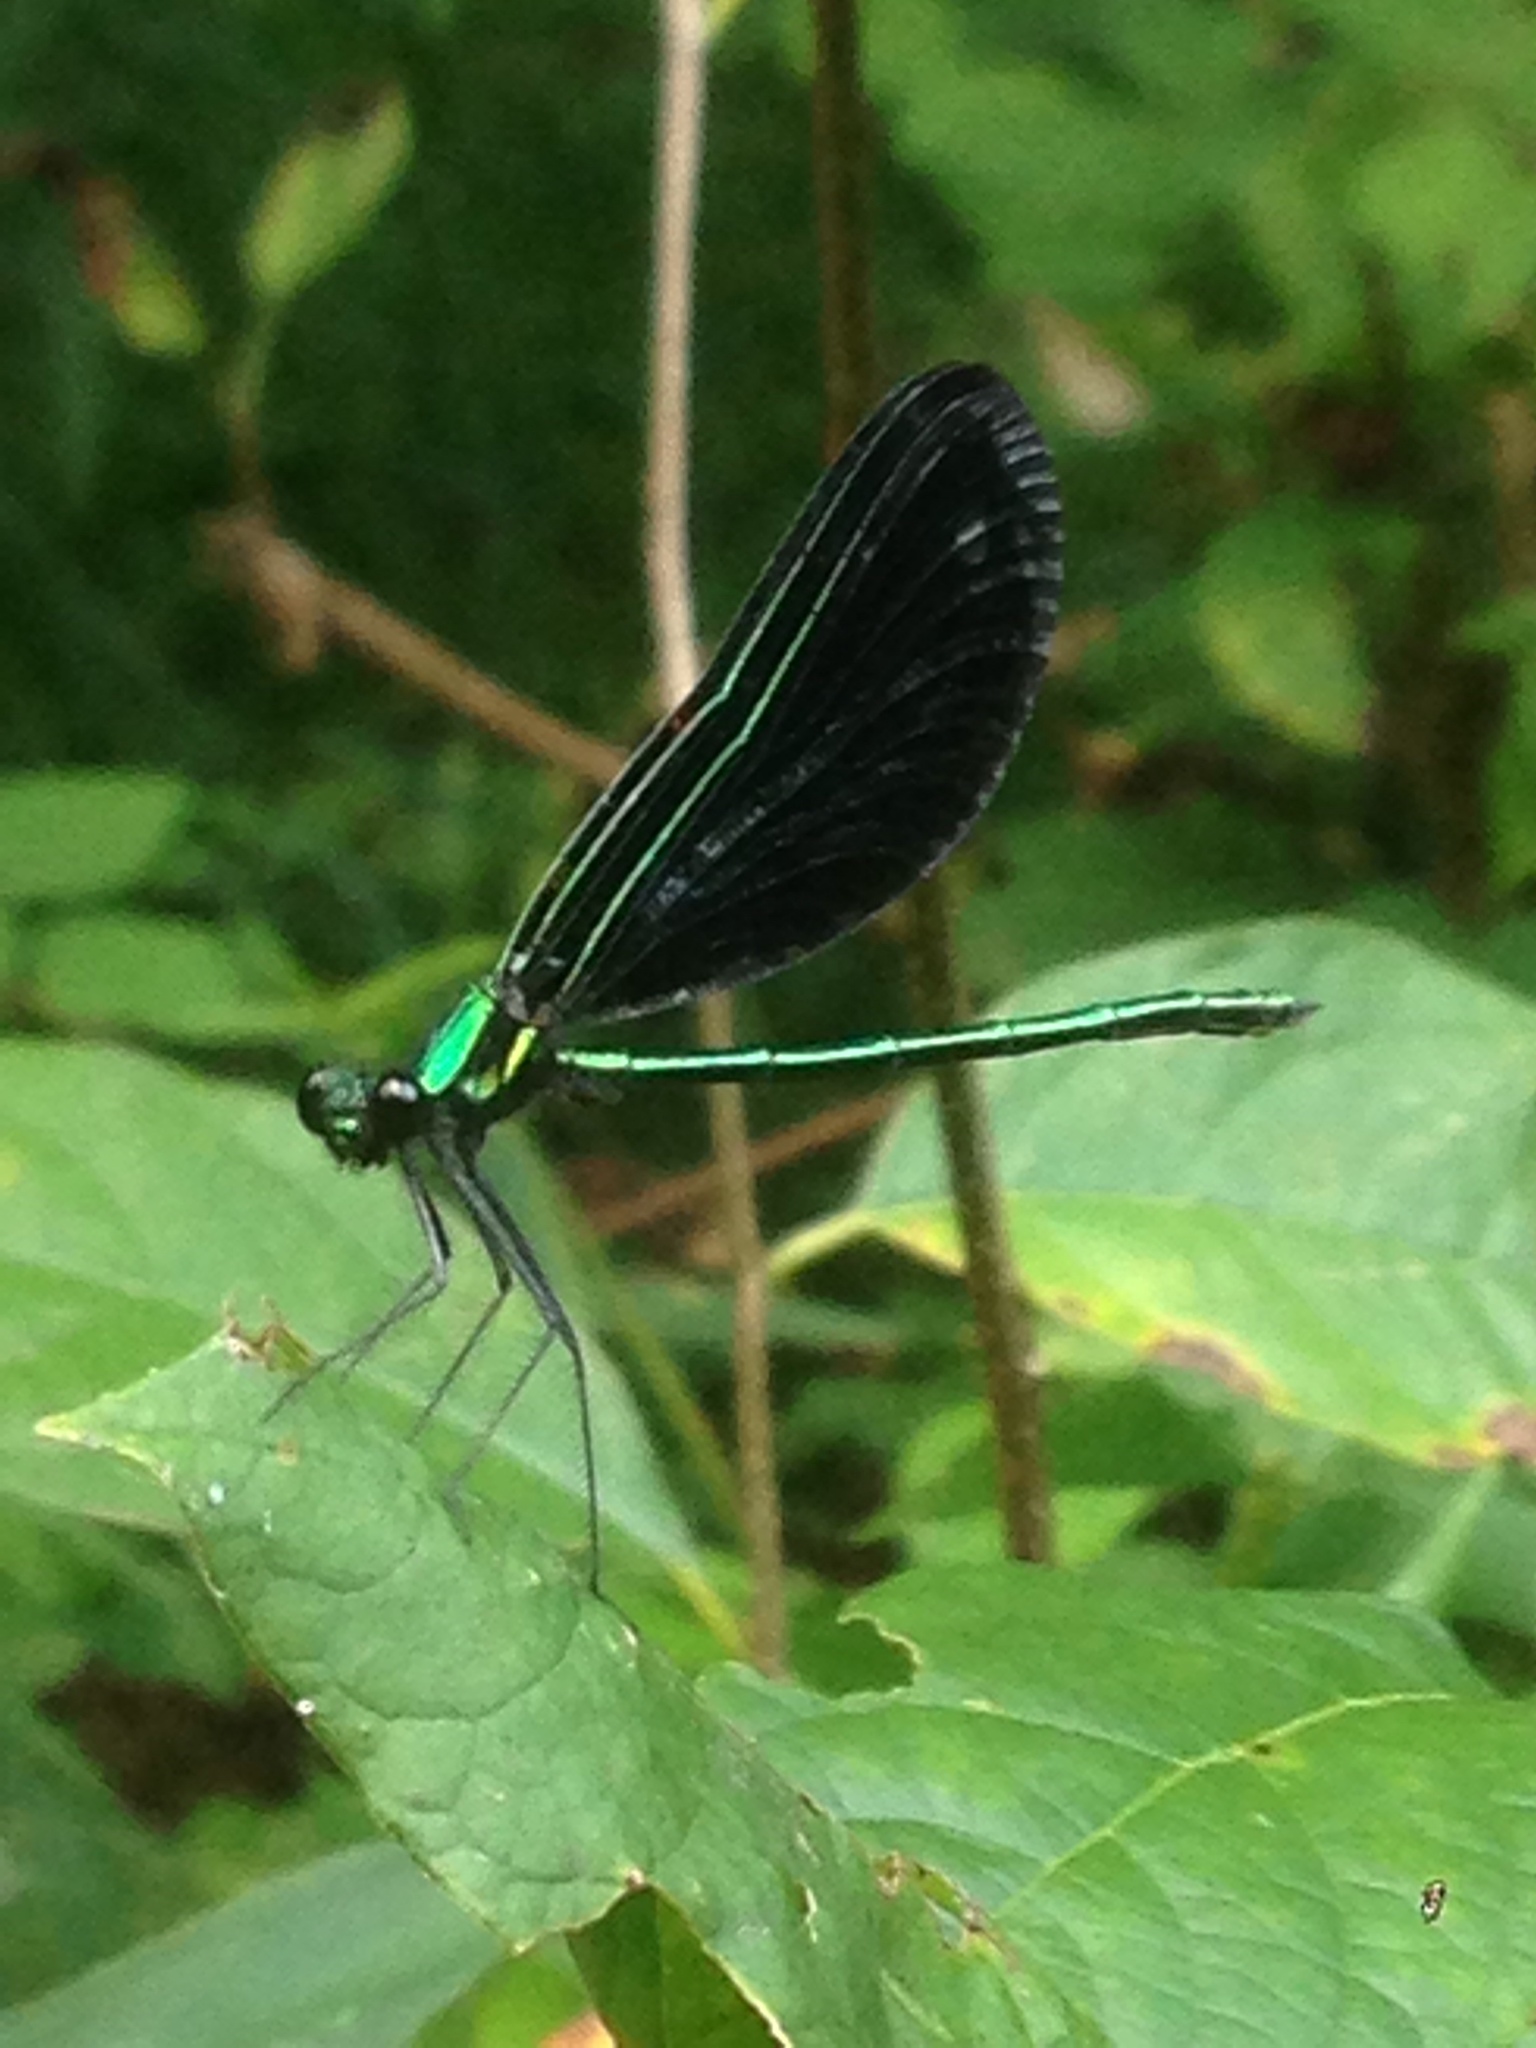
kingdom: Animalia
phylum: Arthropoda
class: Insecta
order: Odonata
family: Calopterygidae
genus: Calopteryx
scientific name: Calopteryx maculata
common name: Ebony jewelwing
